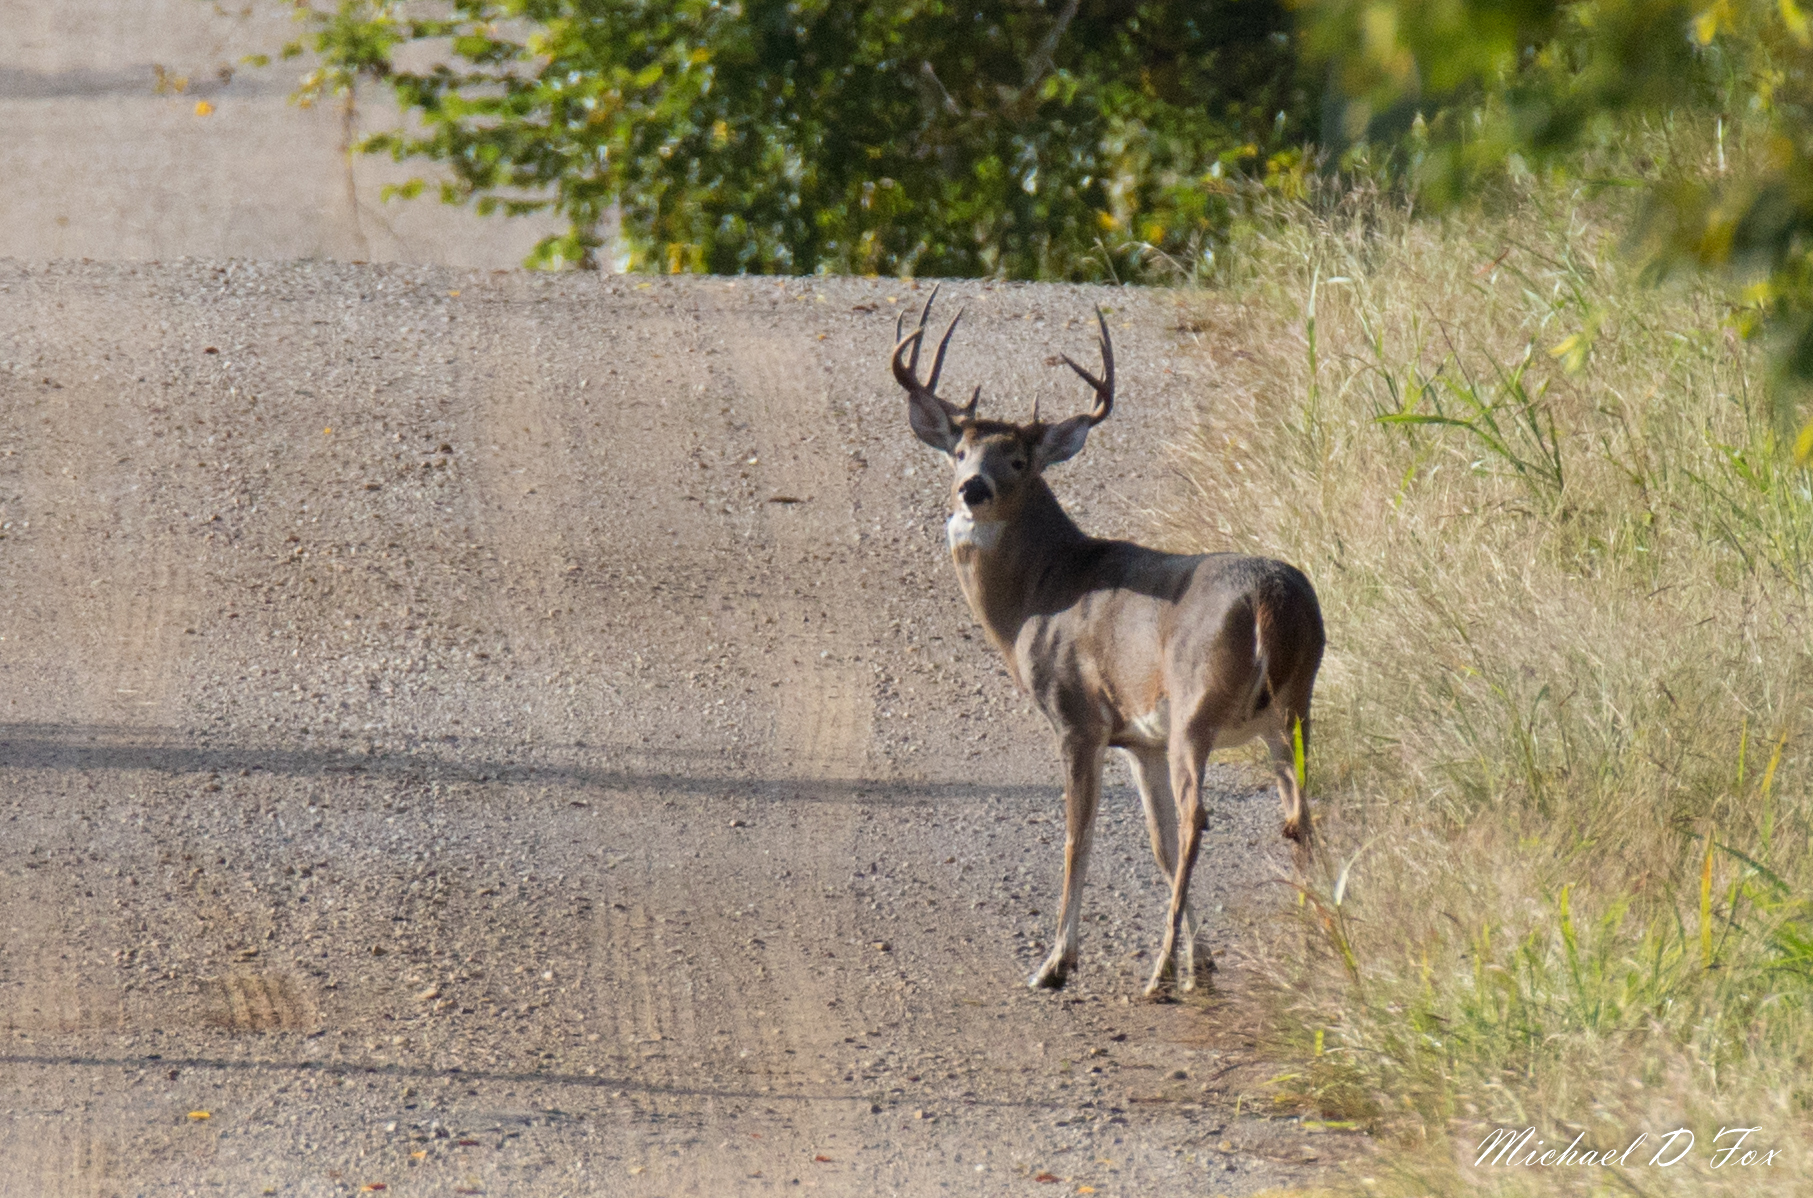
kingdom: Animalia
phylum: Chordata
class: Mammalia
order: Artiodactyla
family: Cervidae
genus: Odocoileus
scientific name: Odocoileus virginianus
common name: White-tailed deer
